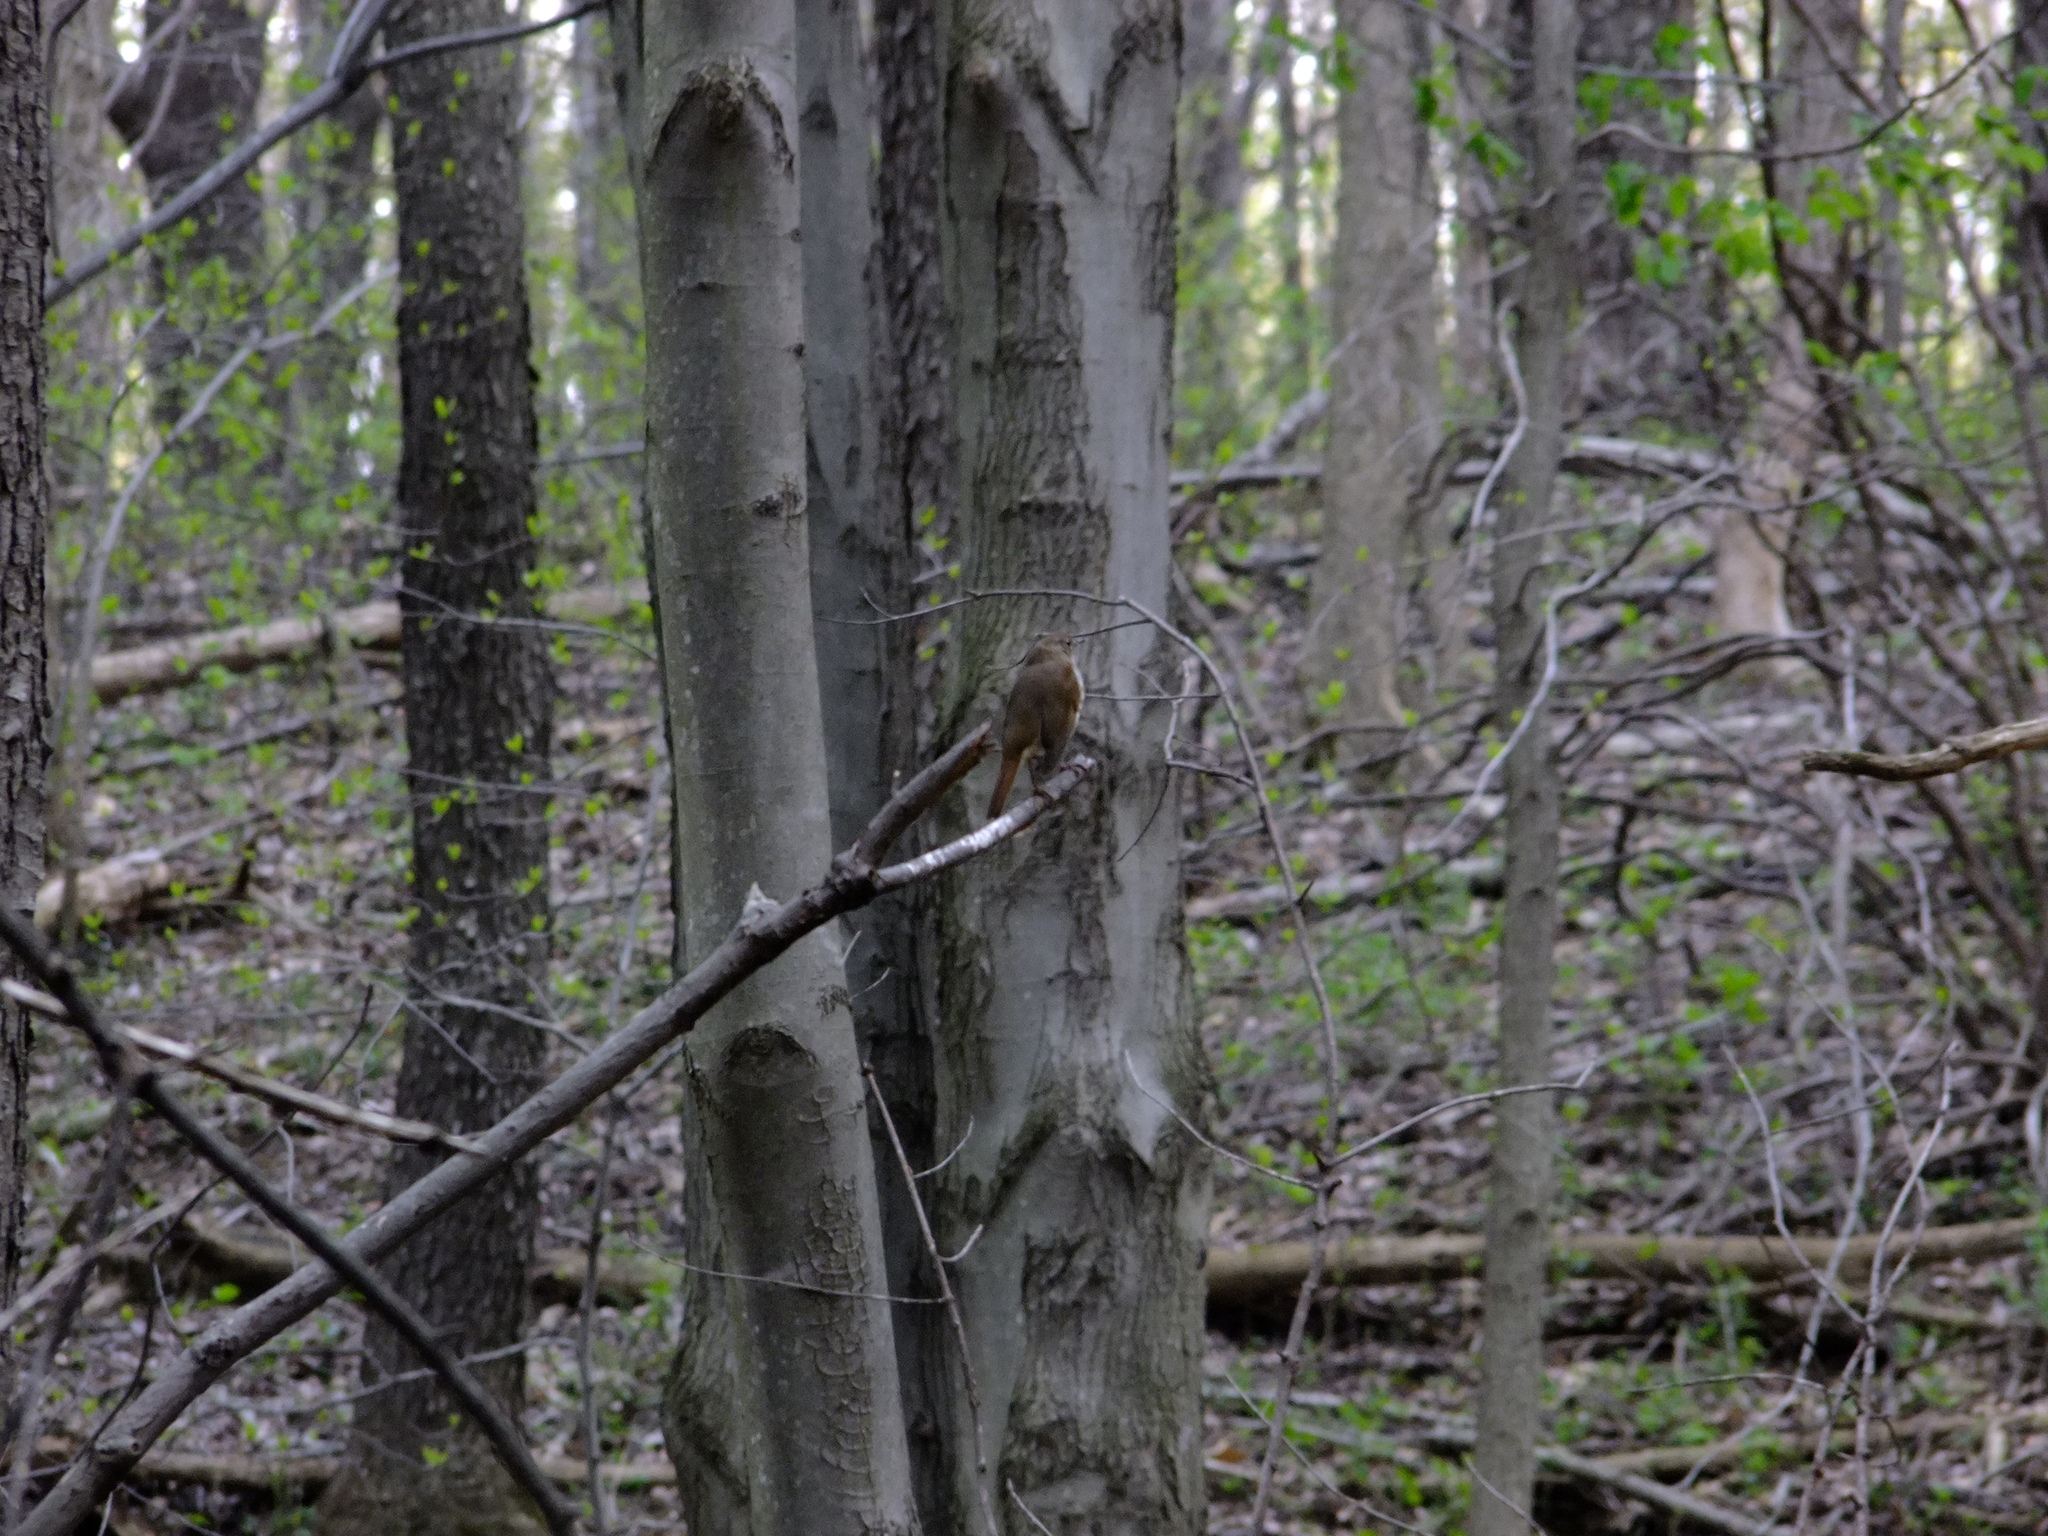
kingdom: Animalia
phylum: Chordata
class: Aves
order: Passeriformes
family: Turdidae
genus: Catharus
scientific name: Catharus guttatus
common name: Hermit thrush
